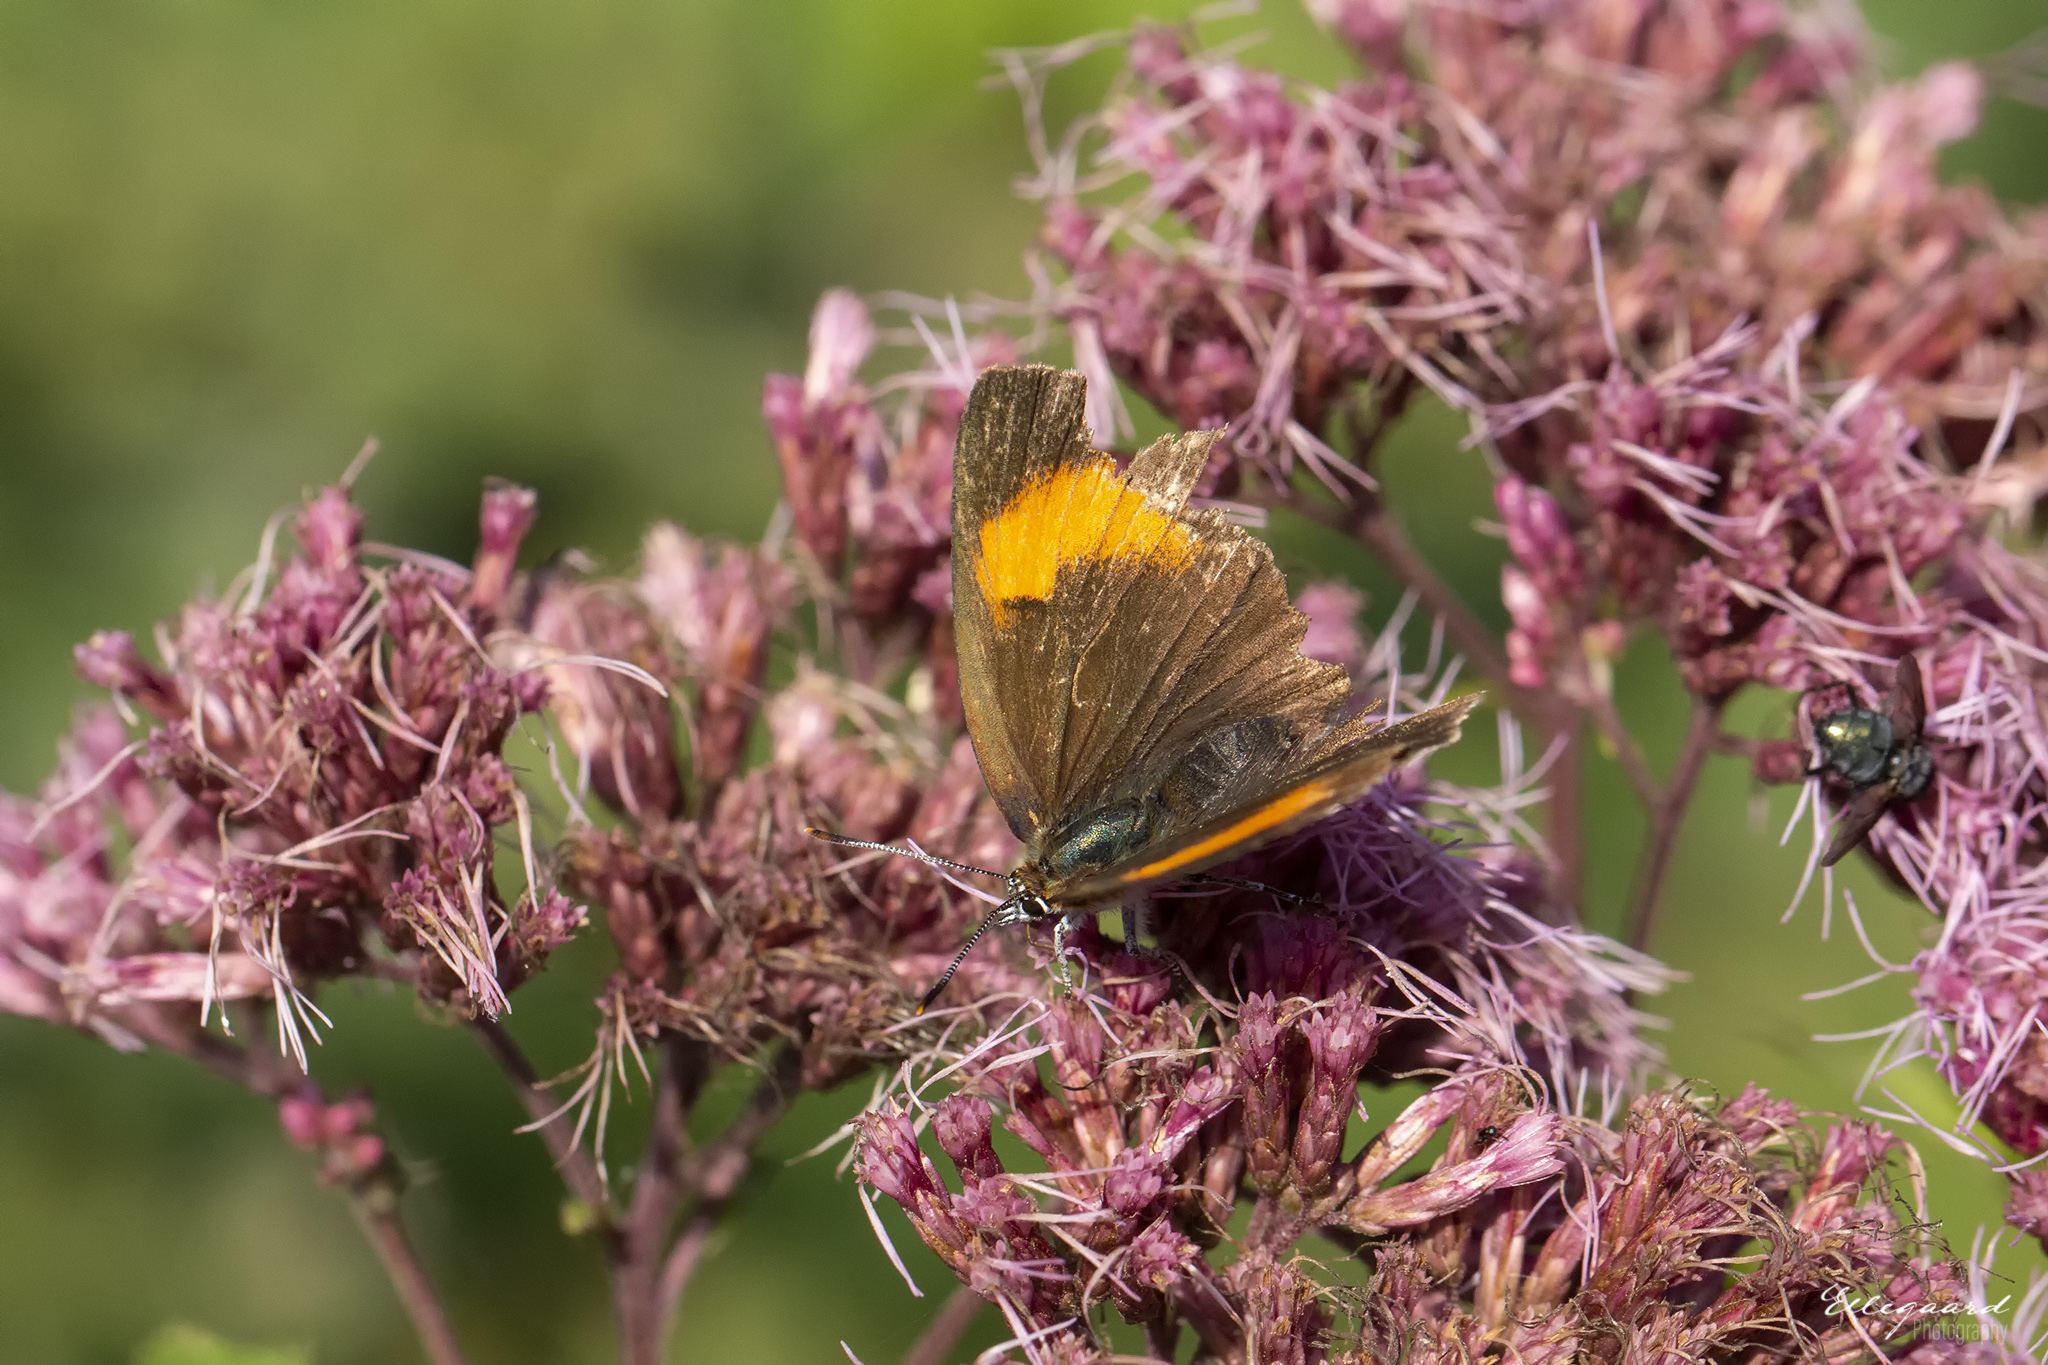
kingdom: Animalia
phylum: Arthropoda
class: Insecta
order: Lepidoptera
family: Lycaenidae
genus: Thecla
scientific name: Thecla betulae
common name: Brown hairstreak
